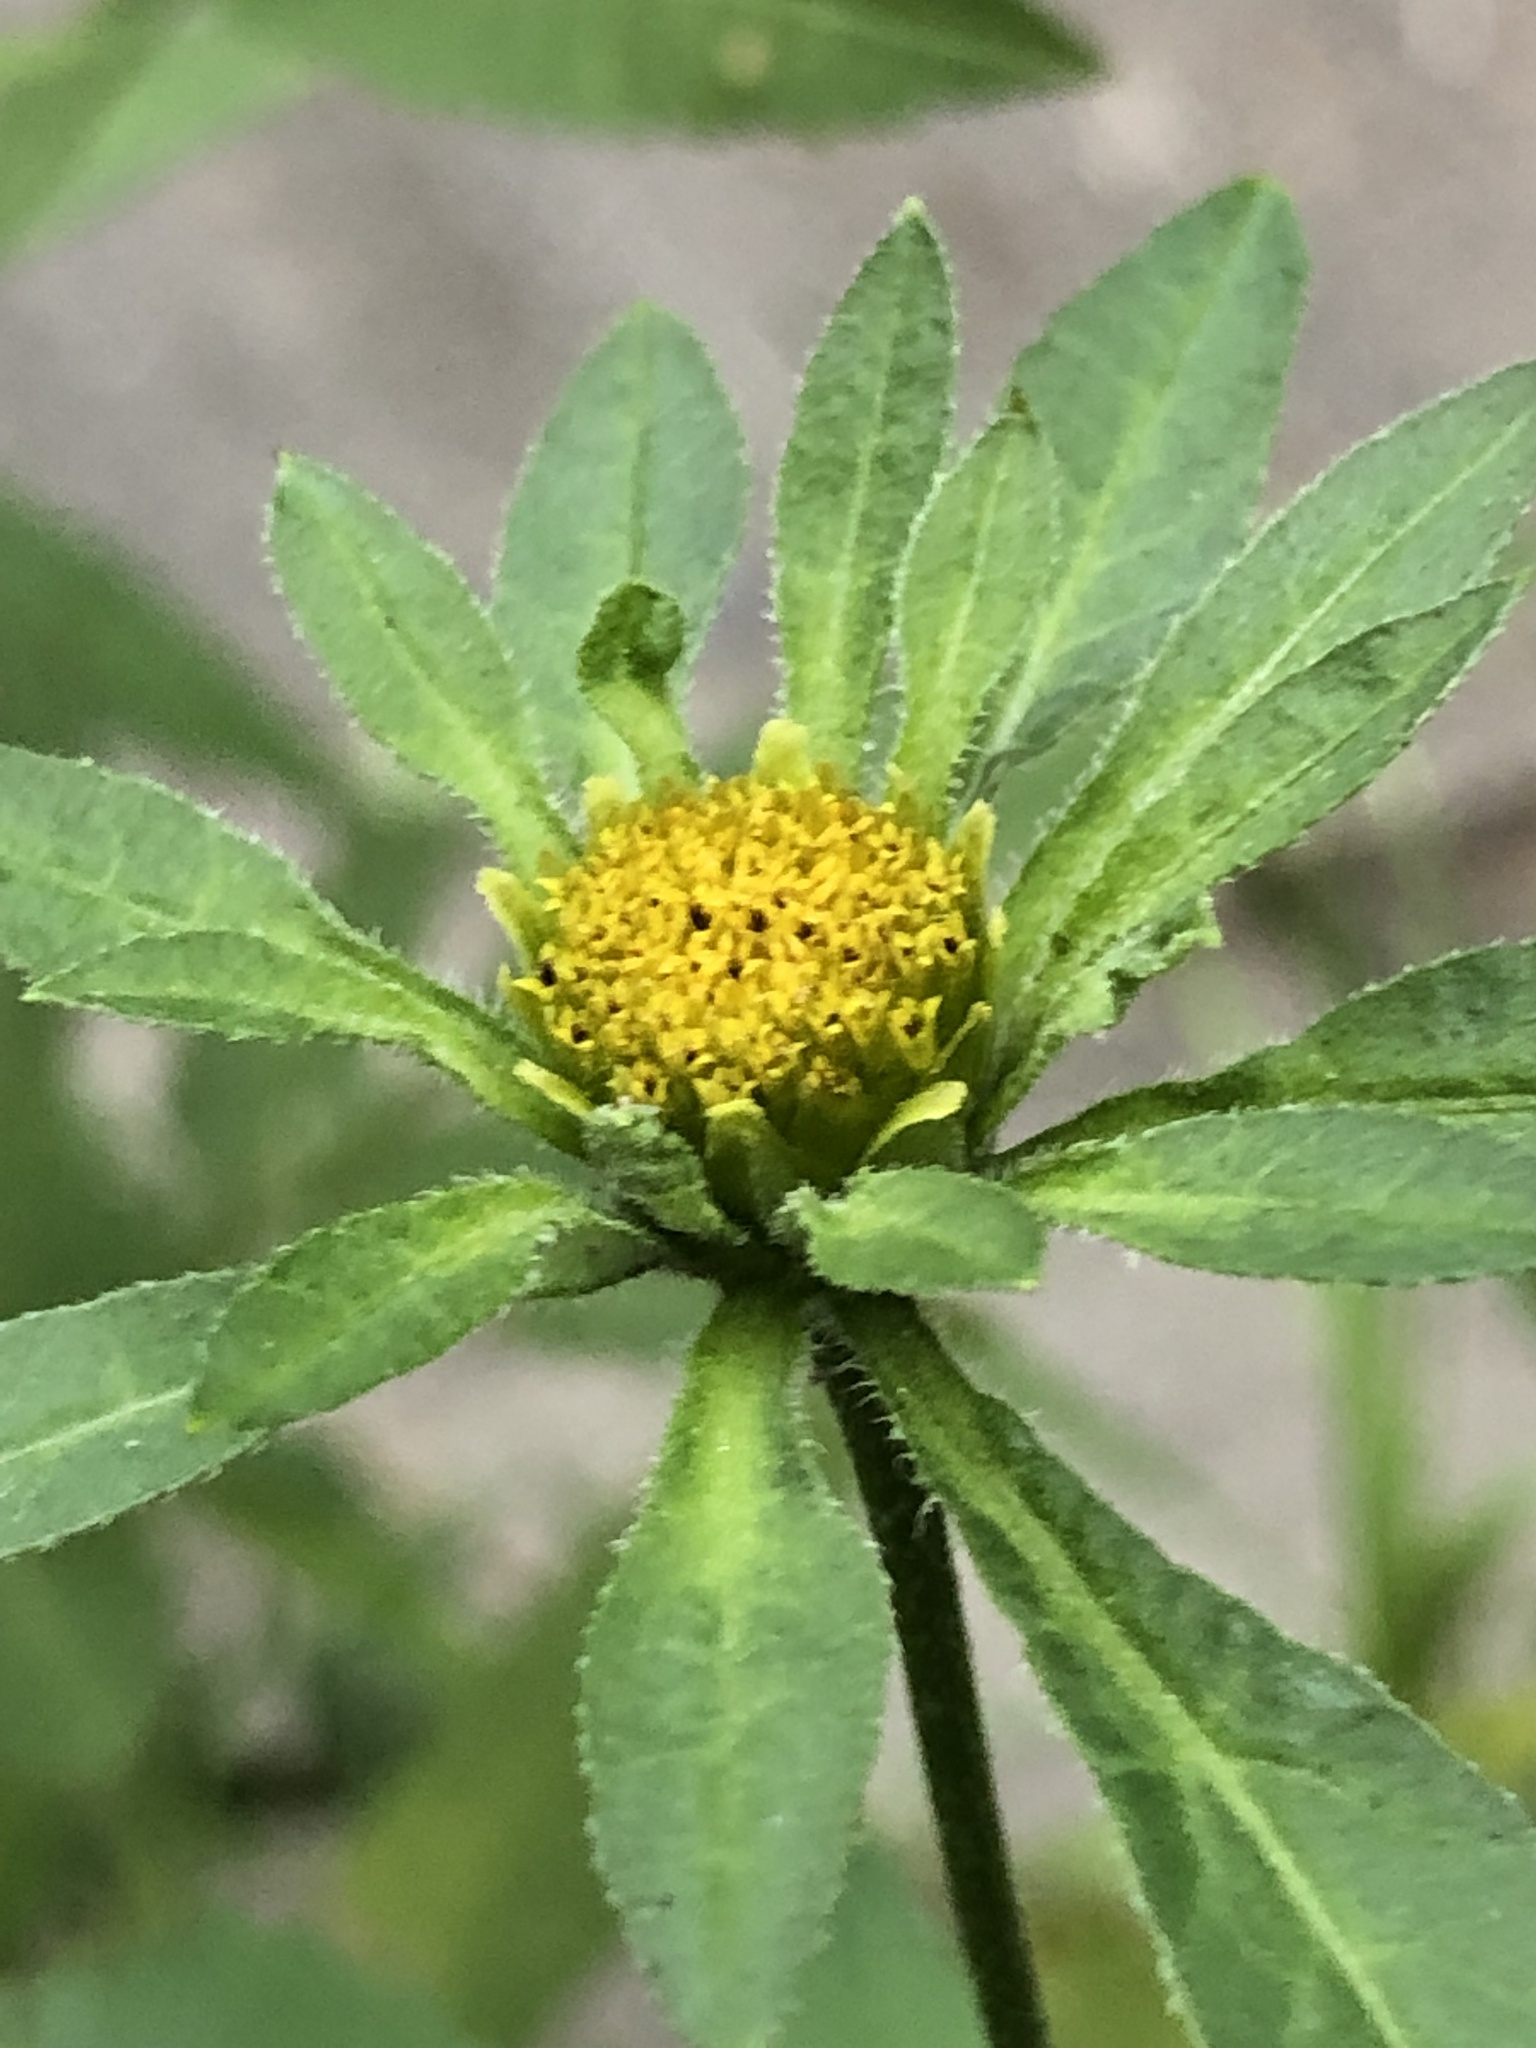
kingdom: Plantae
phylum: Tracheophyta
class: Magnoliopsida
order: Asterales
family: Asteraceae
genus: Bidens
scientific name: Bidens frondosa
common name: Beggarticks
